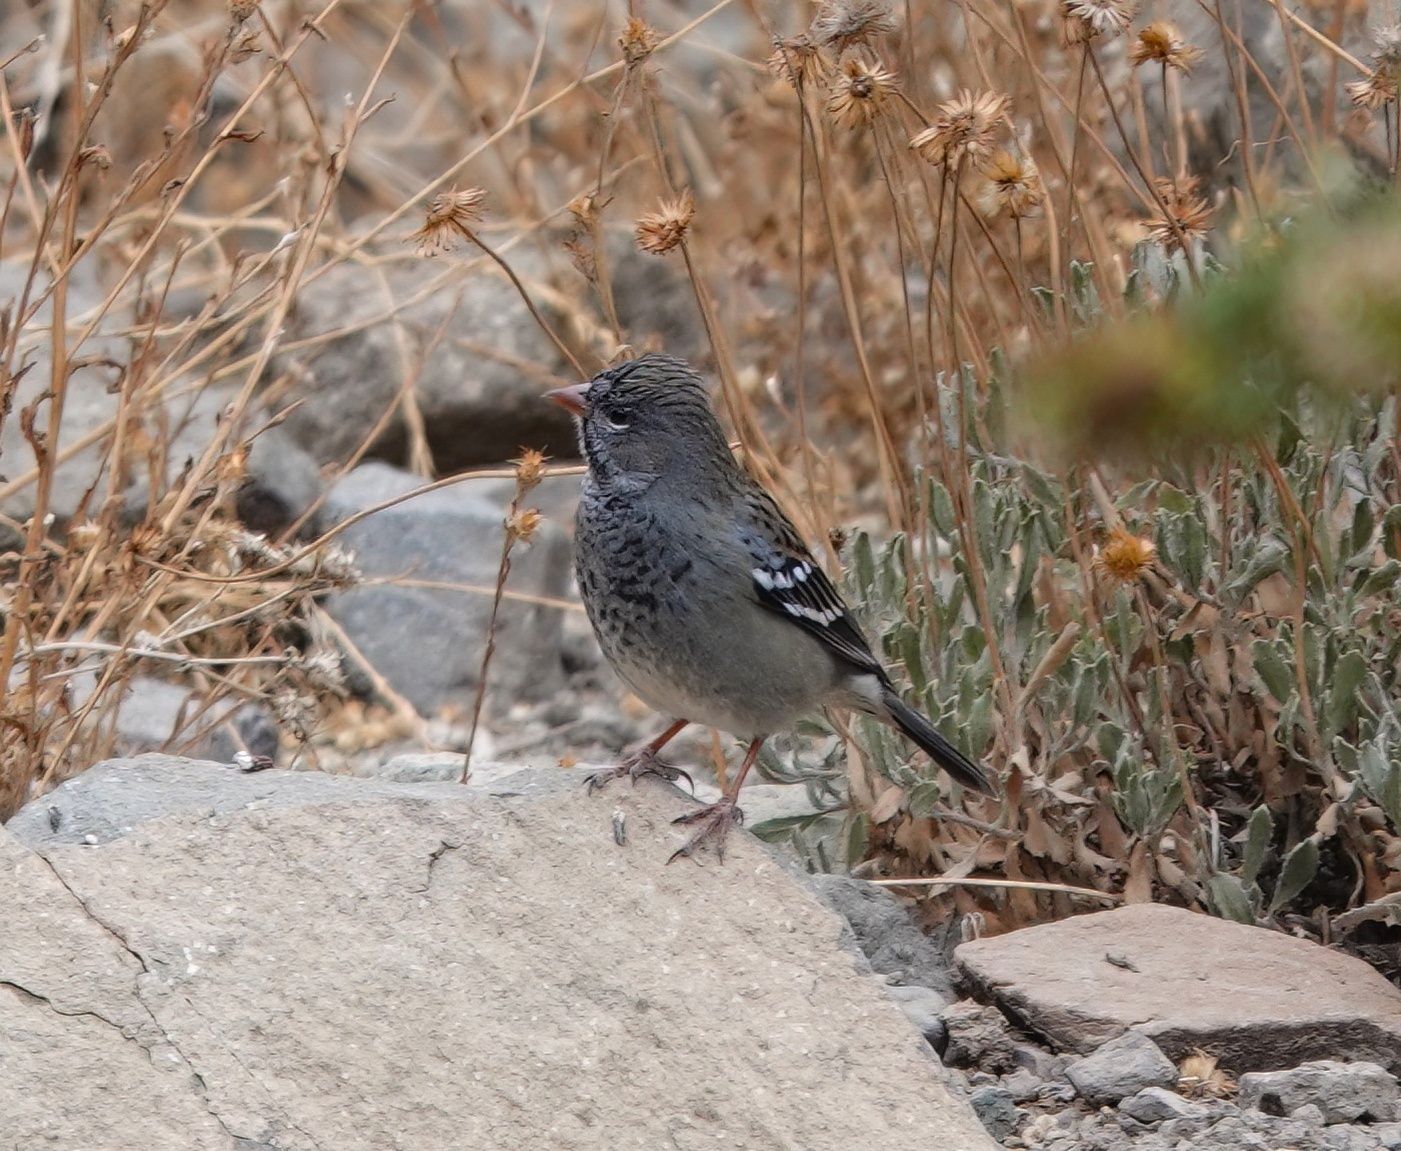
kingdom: Animalia
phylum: Chordata
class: Aves
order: Passeriformes
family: Thraupidae
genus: Rhopospina
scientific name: Rhopospina fruticeti
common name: Mourning sierra finch
